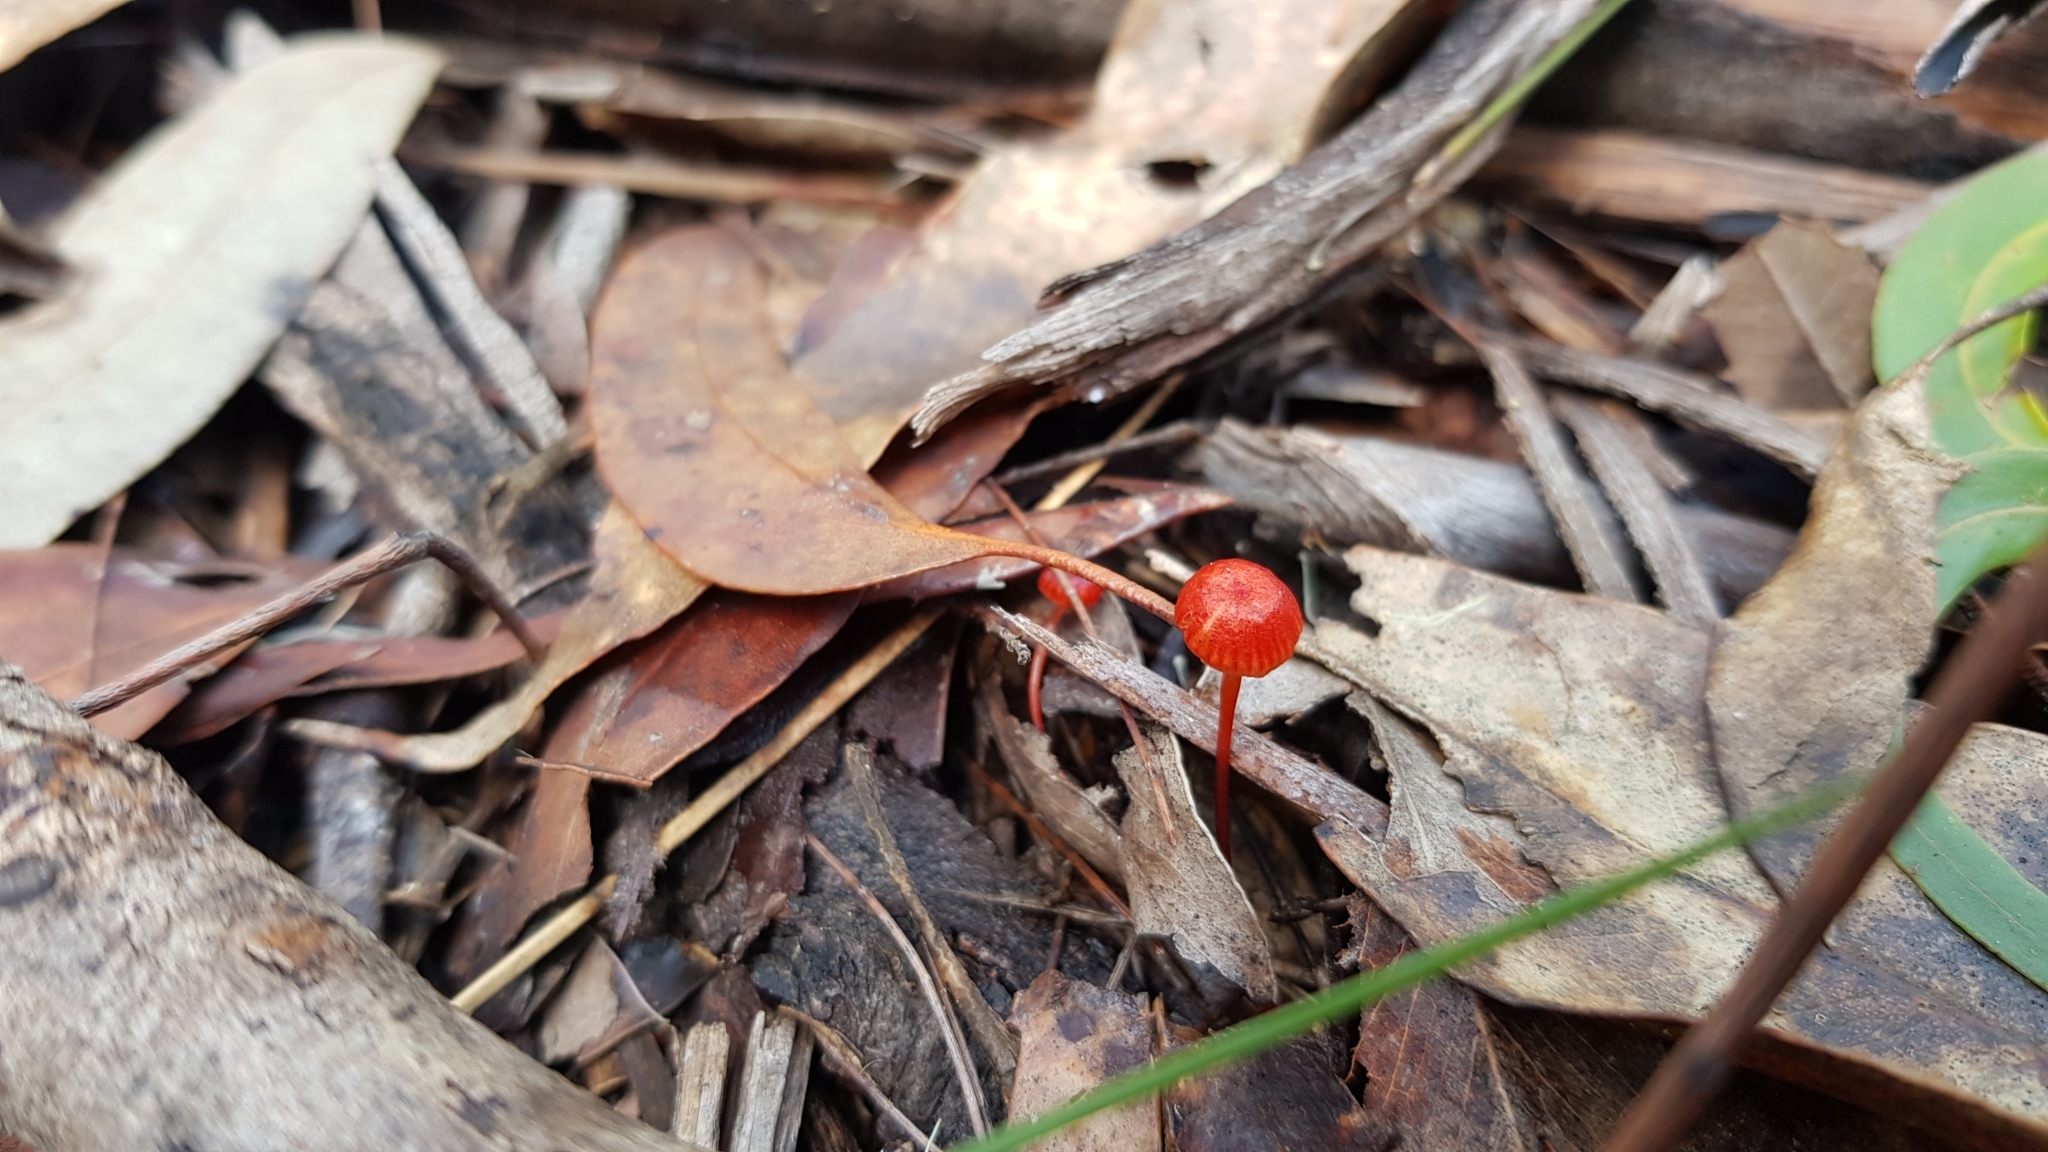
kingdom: Fungi
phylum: Basidiomycota
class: Agaricomycetes
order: Agaricales
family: Mycenaceae
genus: Cruentomycena
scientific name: Cruentomycena viscidocruenta
